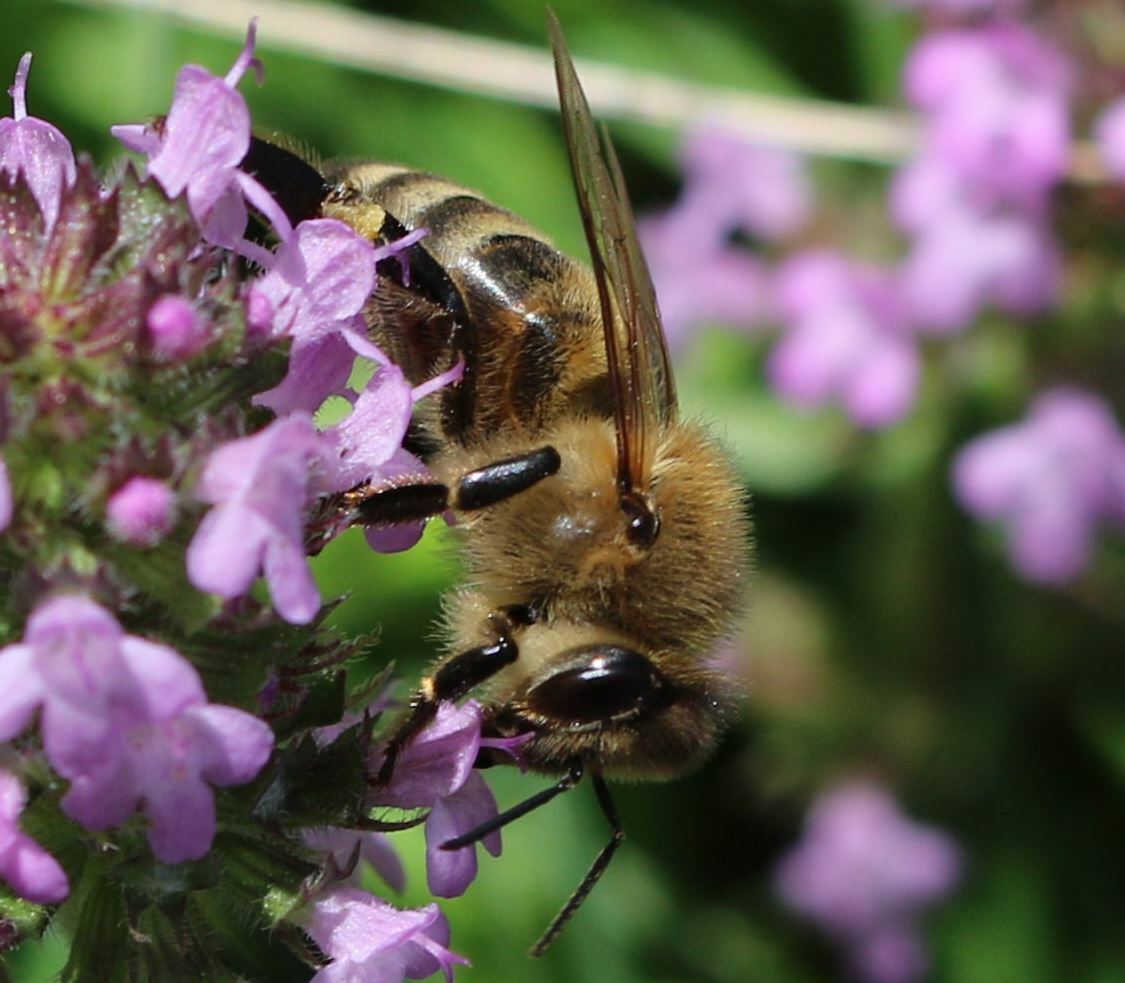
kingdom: Animalia
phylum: Arthropoda
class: Insecta
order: Hymenoptera
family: Apidae
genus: Apis
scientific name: Apis mellifera
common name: Honey bee
